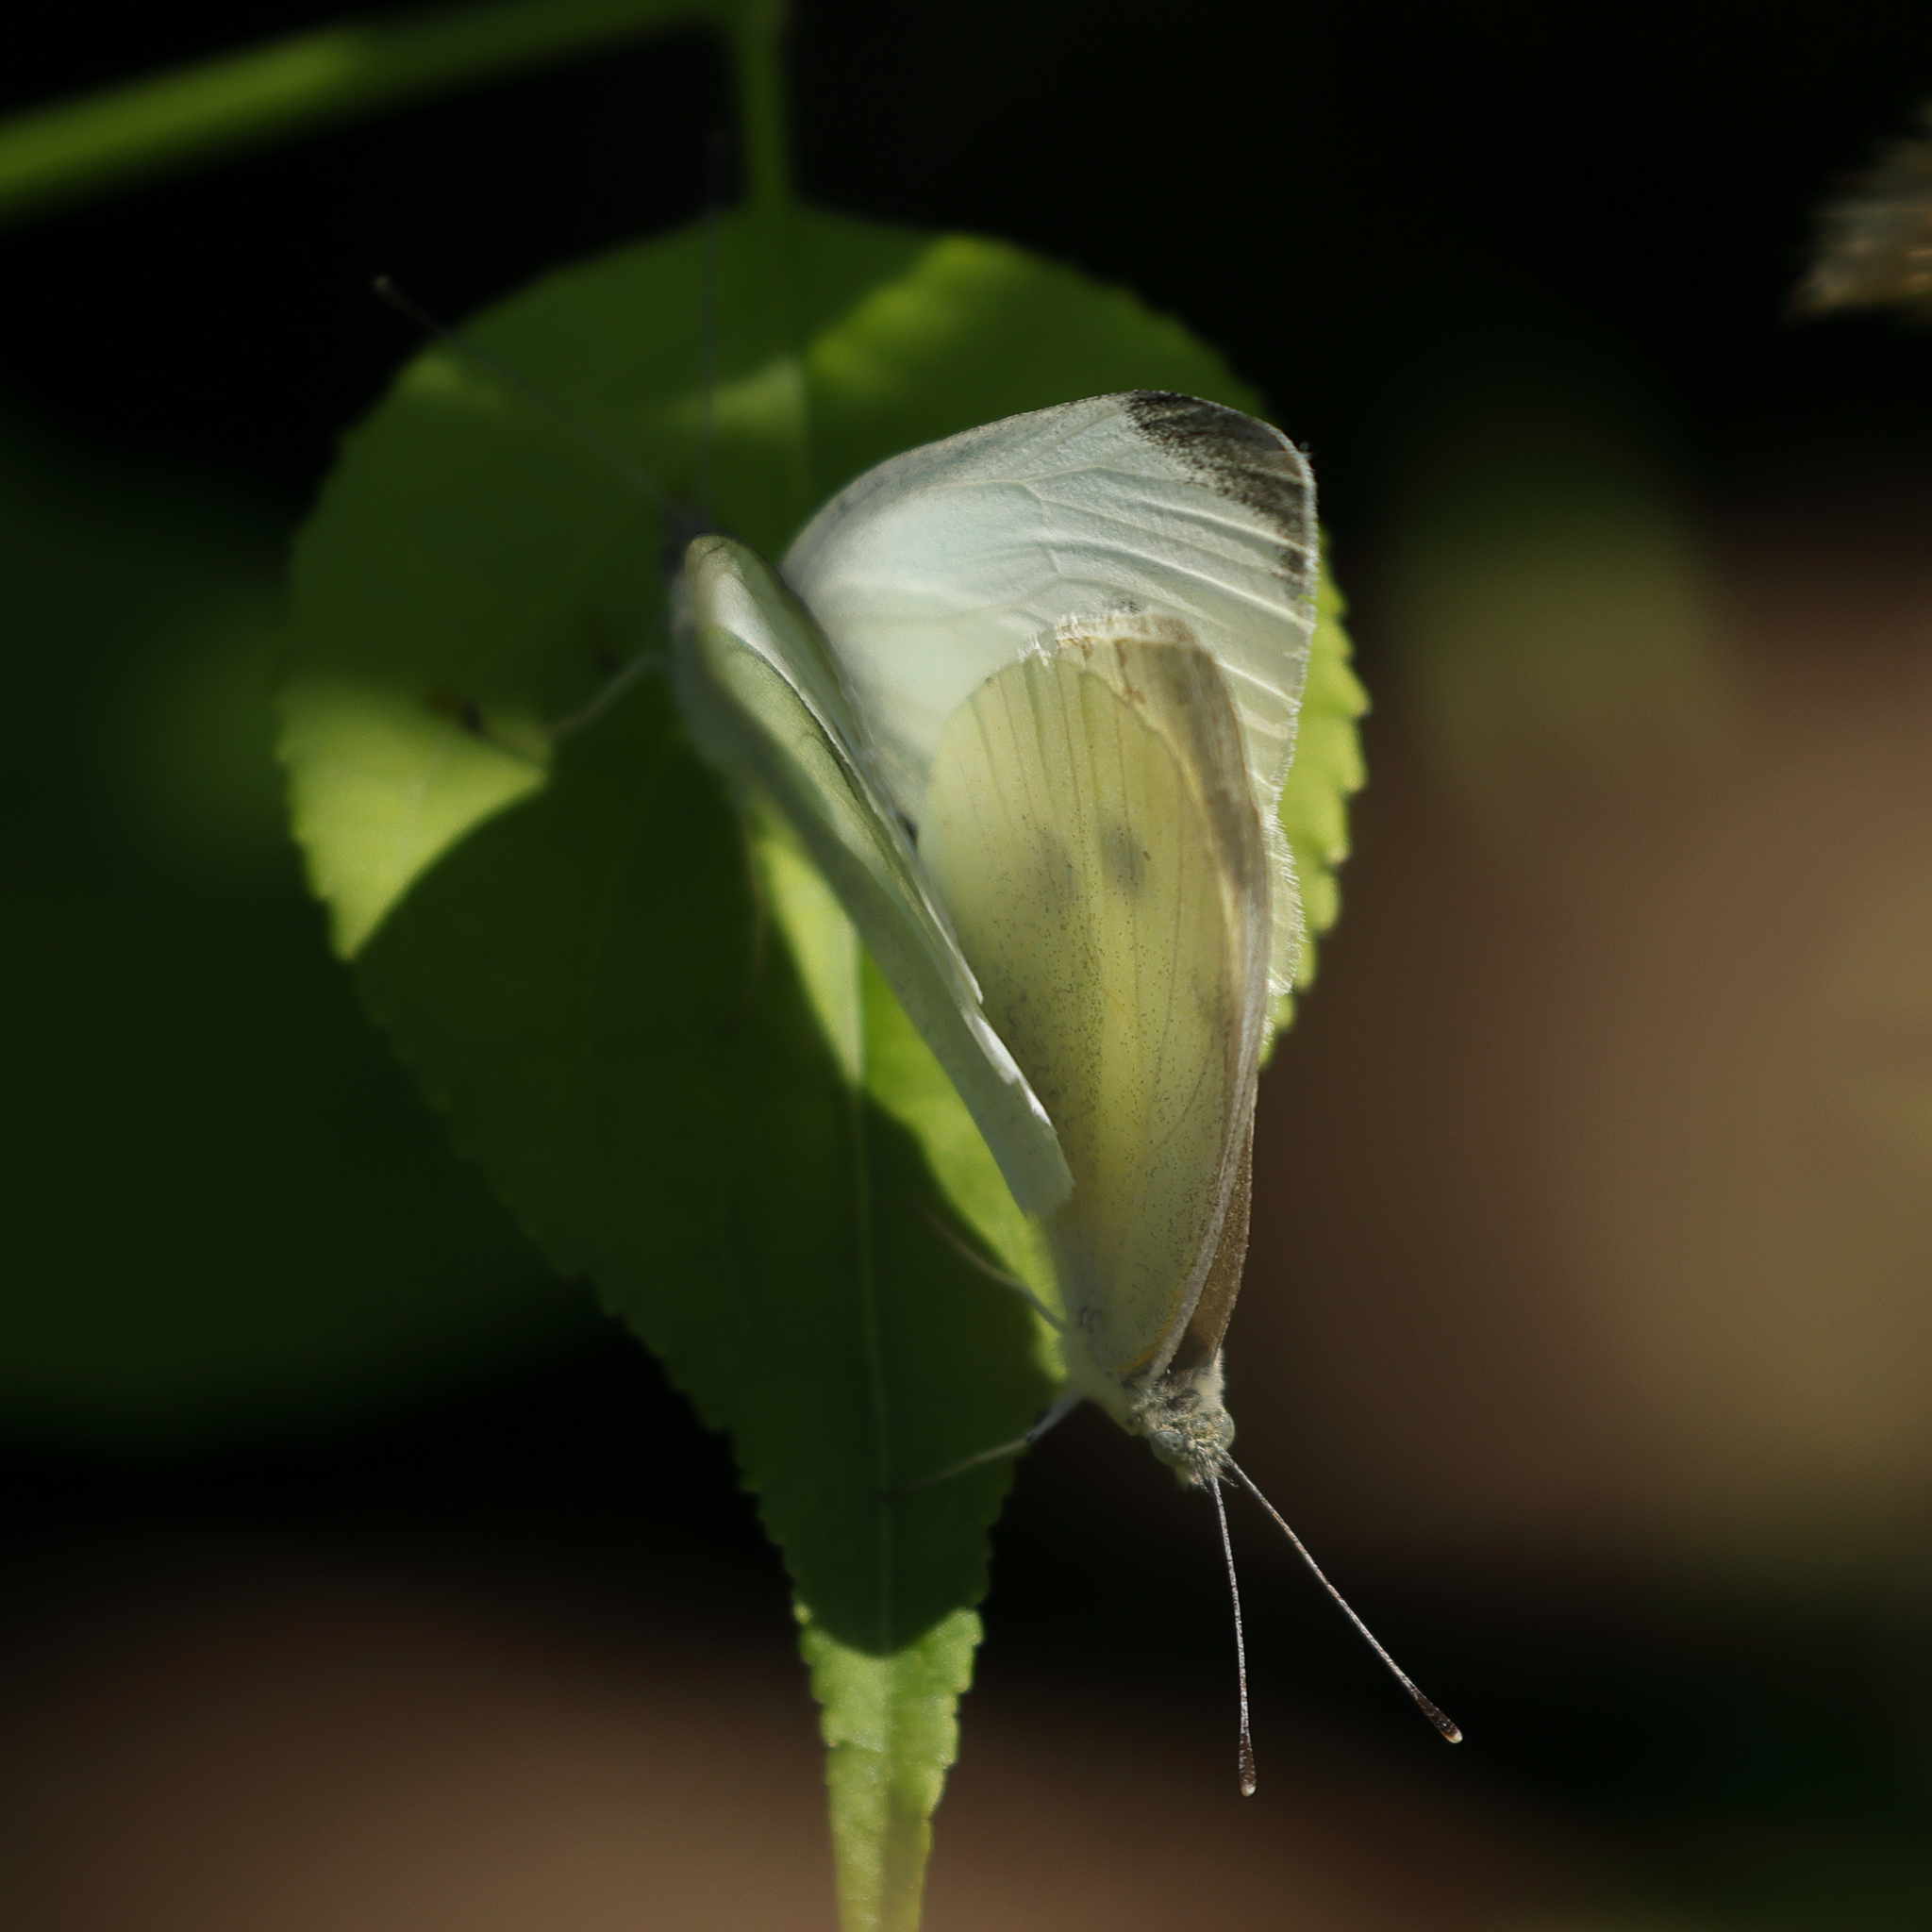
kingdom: Animalia
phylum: Arthropoda
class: Insecta
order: Lepidoptera
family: Pieridae
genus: Pieris
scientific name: Pieris rapae
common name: Small white
